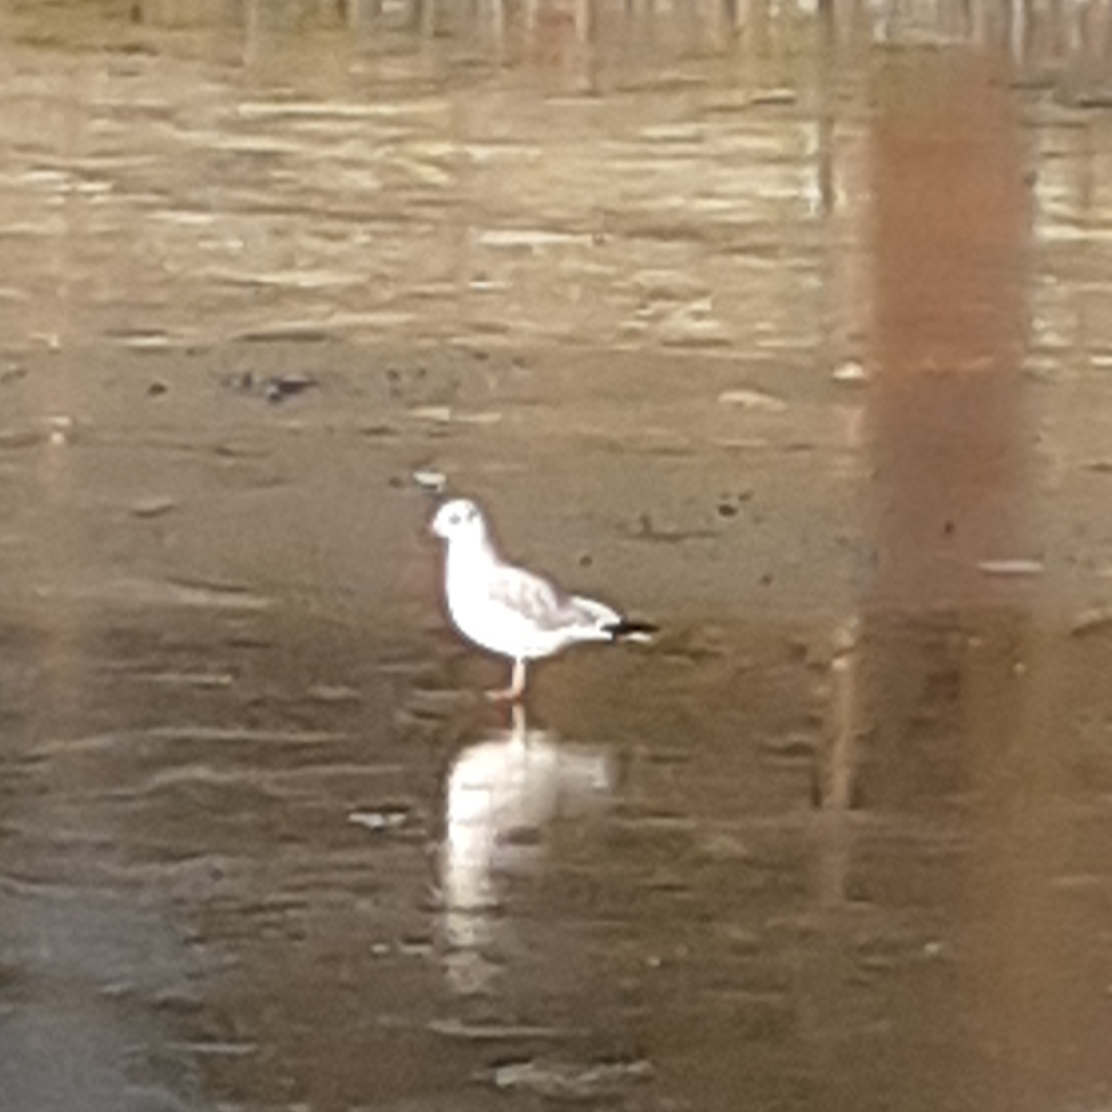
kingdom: Animalia
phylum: Chordata
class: Aves
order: Charadriiformes
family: Laridae
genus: Chroicocephalus
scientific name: Chroicocephalus ridibundus
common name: Black-headed gull
